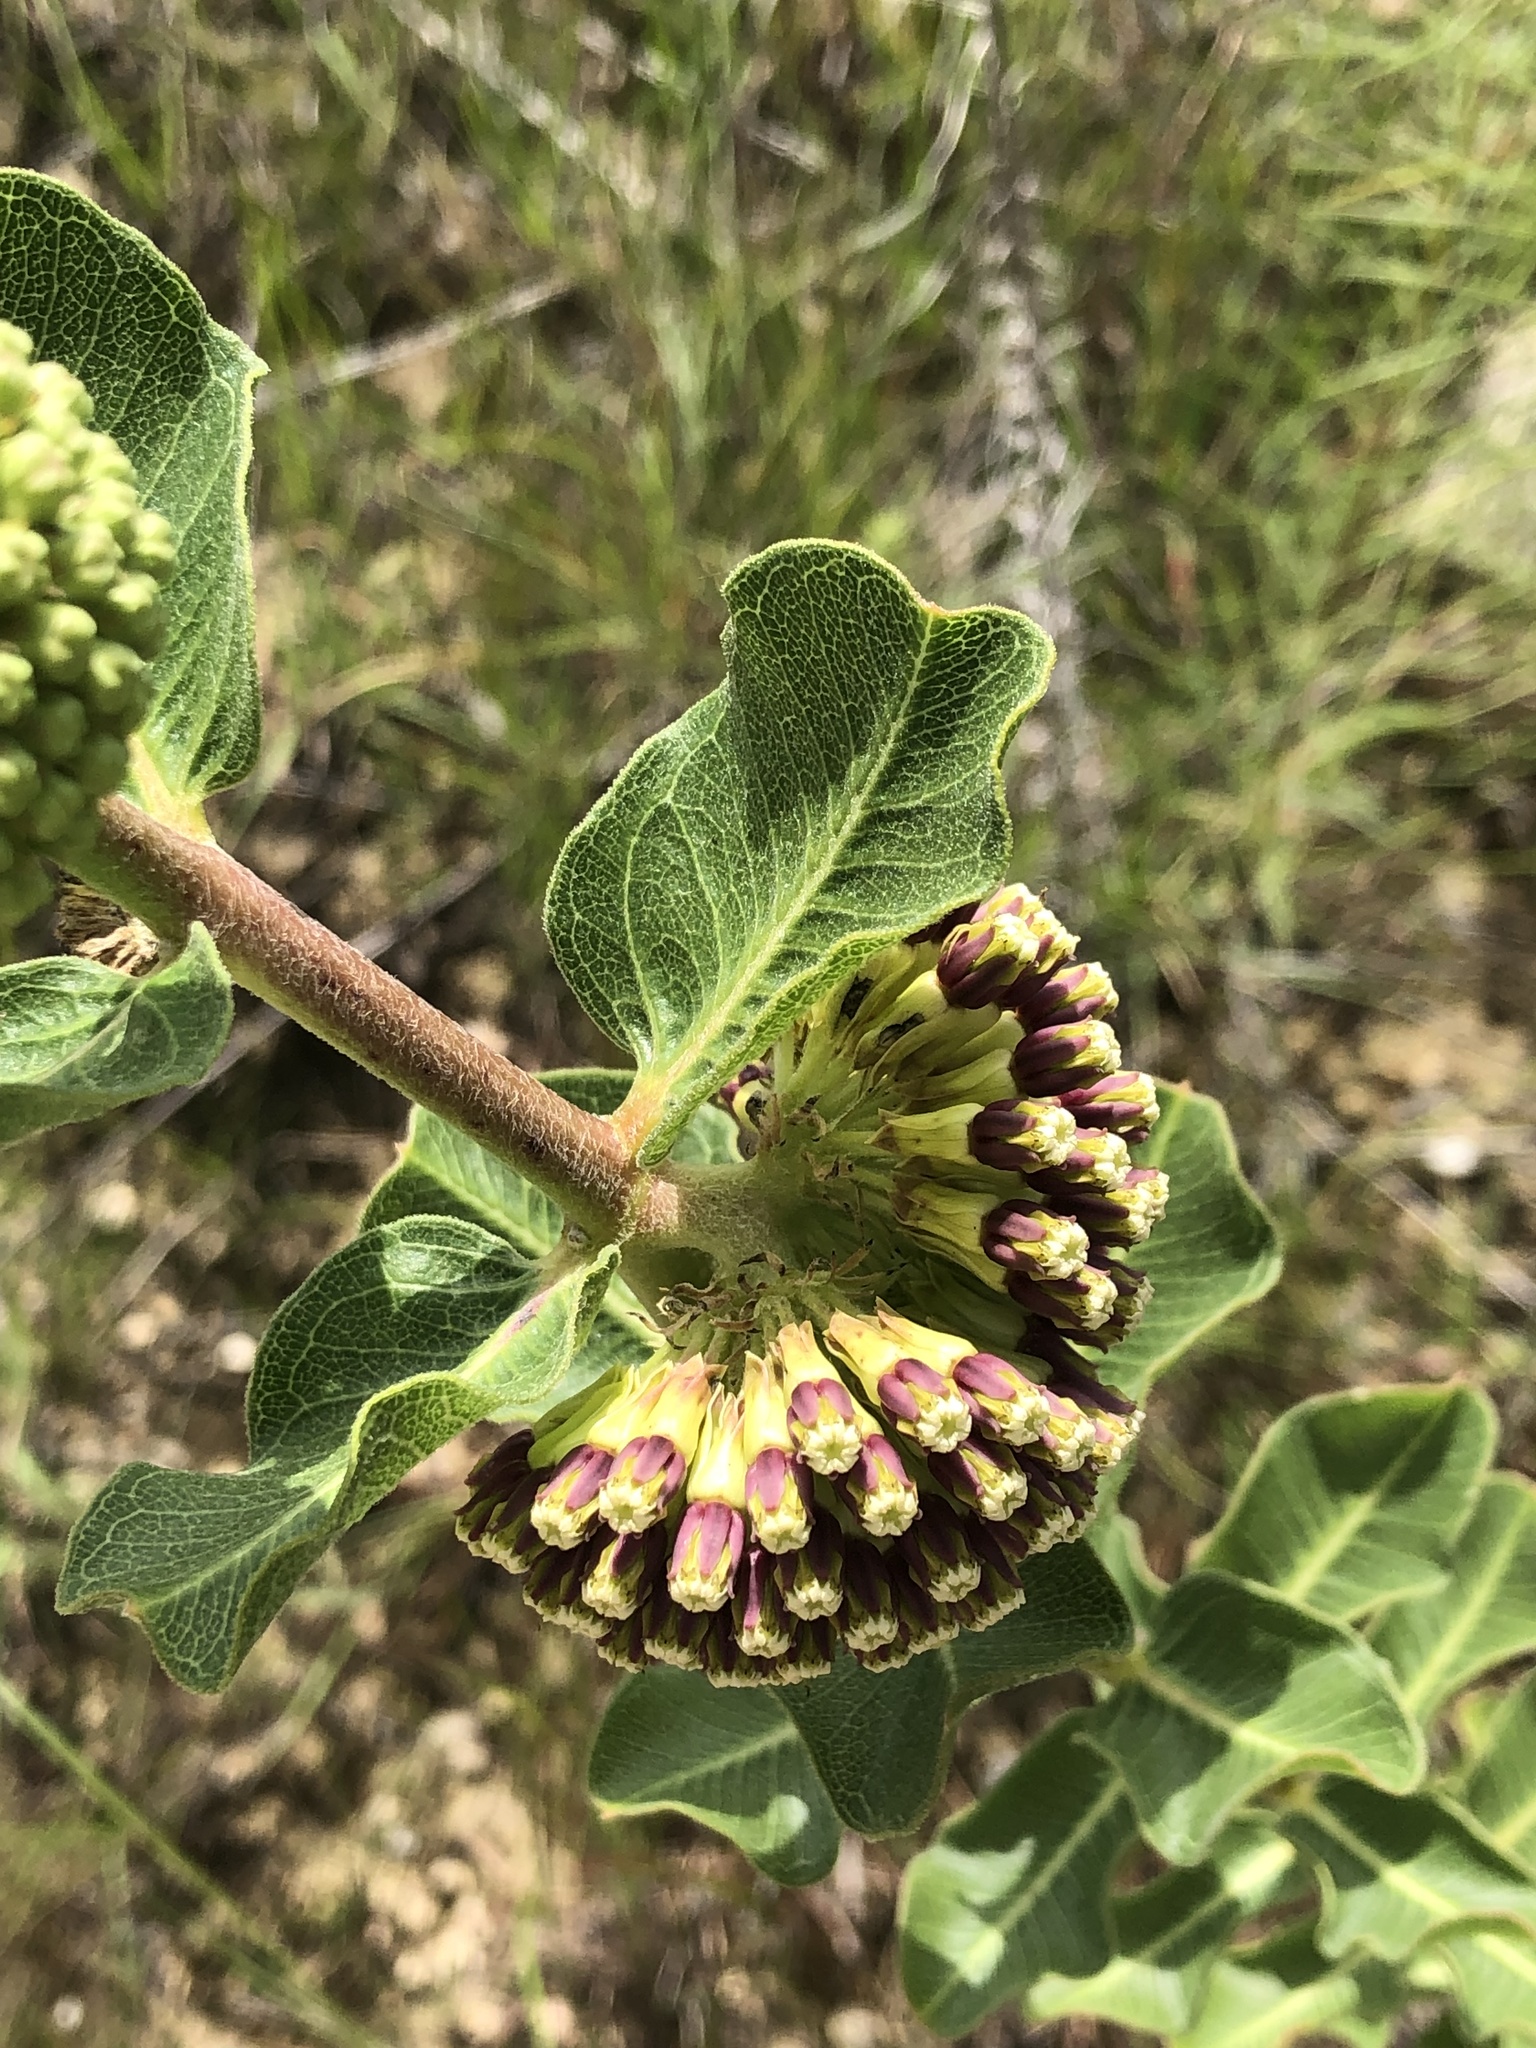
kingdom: Plantae
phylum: Tracheophyta
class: Magnoliopsida
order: Gentianales
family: Apocynaceae
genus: Asclepias
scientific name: Asclepias viridiflora
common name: Green comet milkweed
